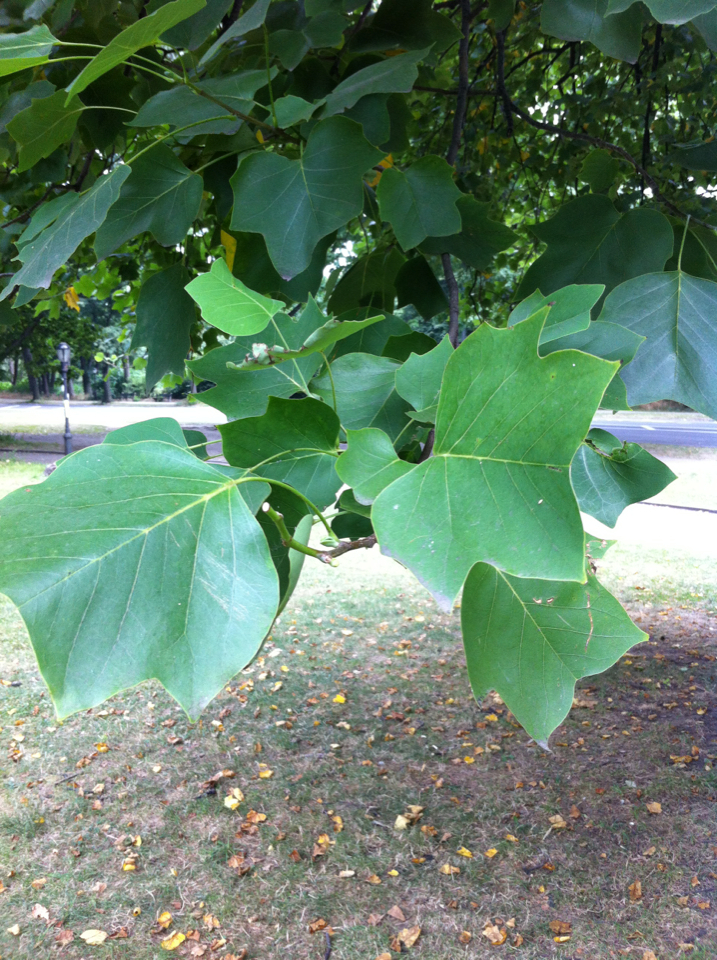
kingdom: Plantae
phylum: Tracheophyta
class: Magnoliopsida
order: Magnoliales
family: Magnoliaceae
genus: Liriodendron
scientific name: Liriodendron tulipifera
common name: Tulip tree
